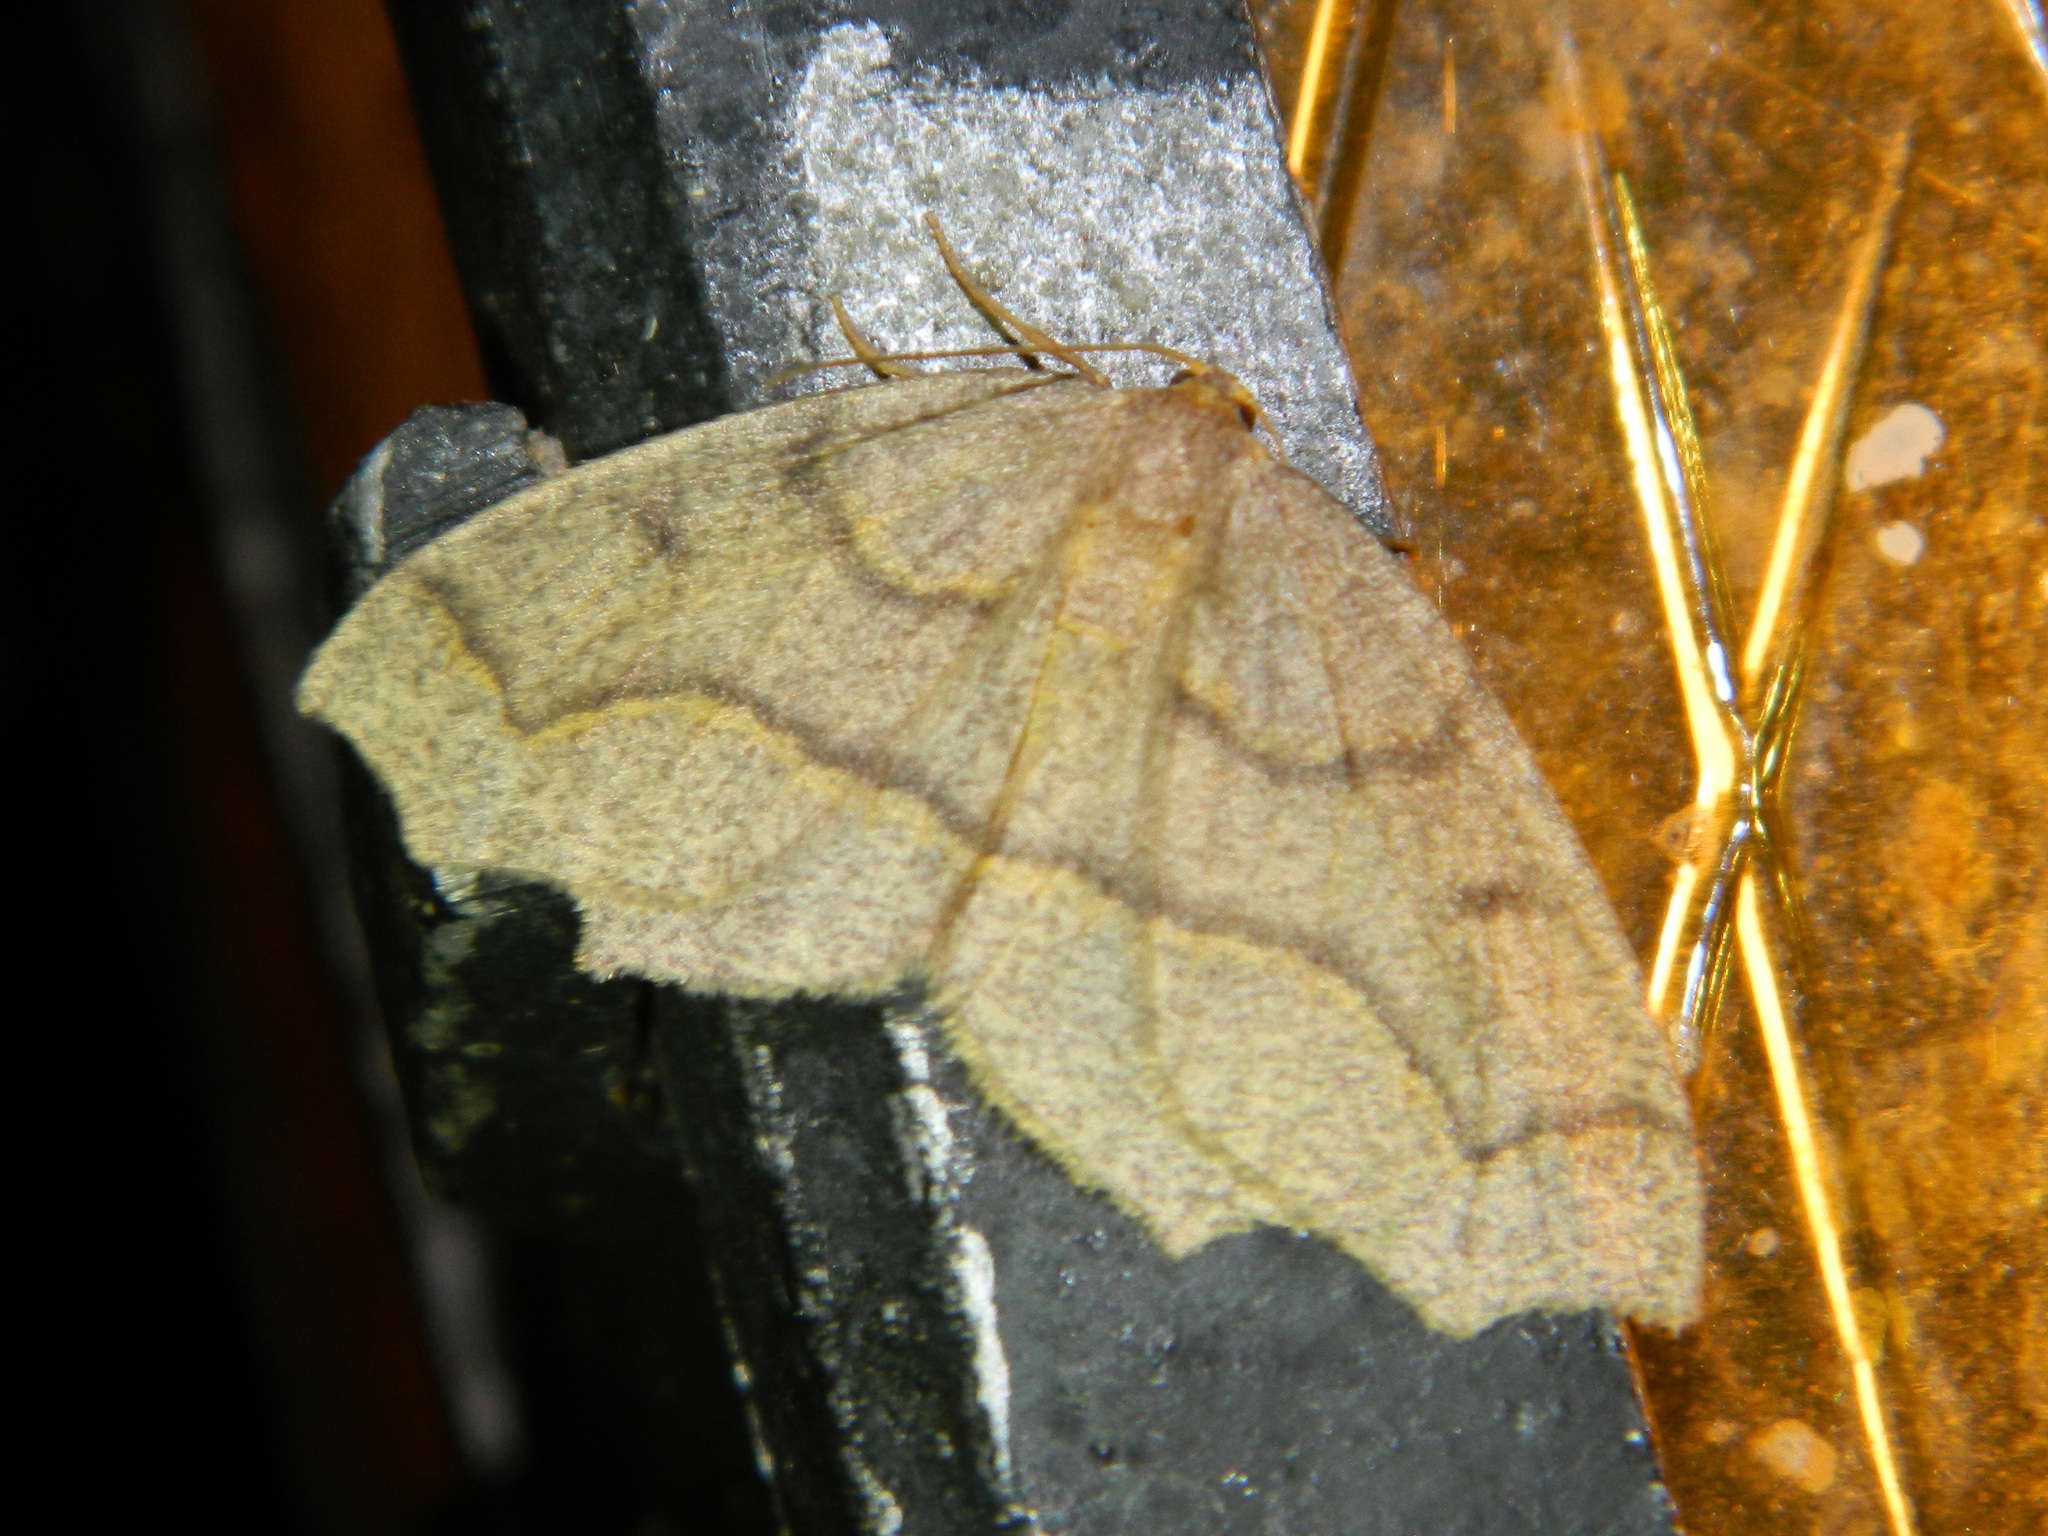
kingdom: Animalia
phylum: Arthropoda
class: Insecta
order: Lepidoptera
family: Geometridae
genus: Lambdina
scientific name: Lambdina fiscellaria
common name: Hemlock looper
